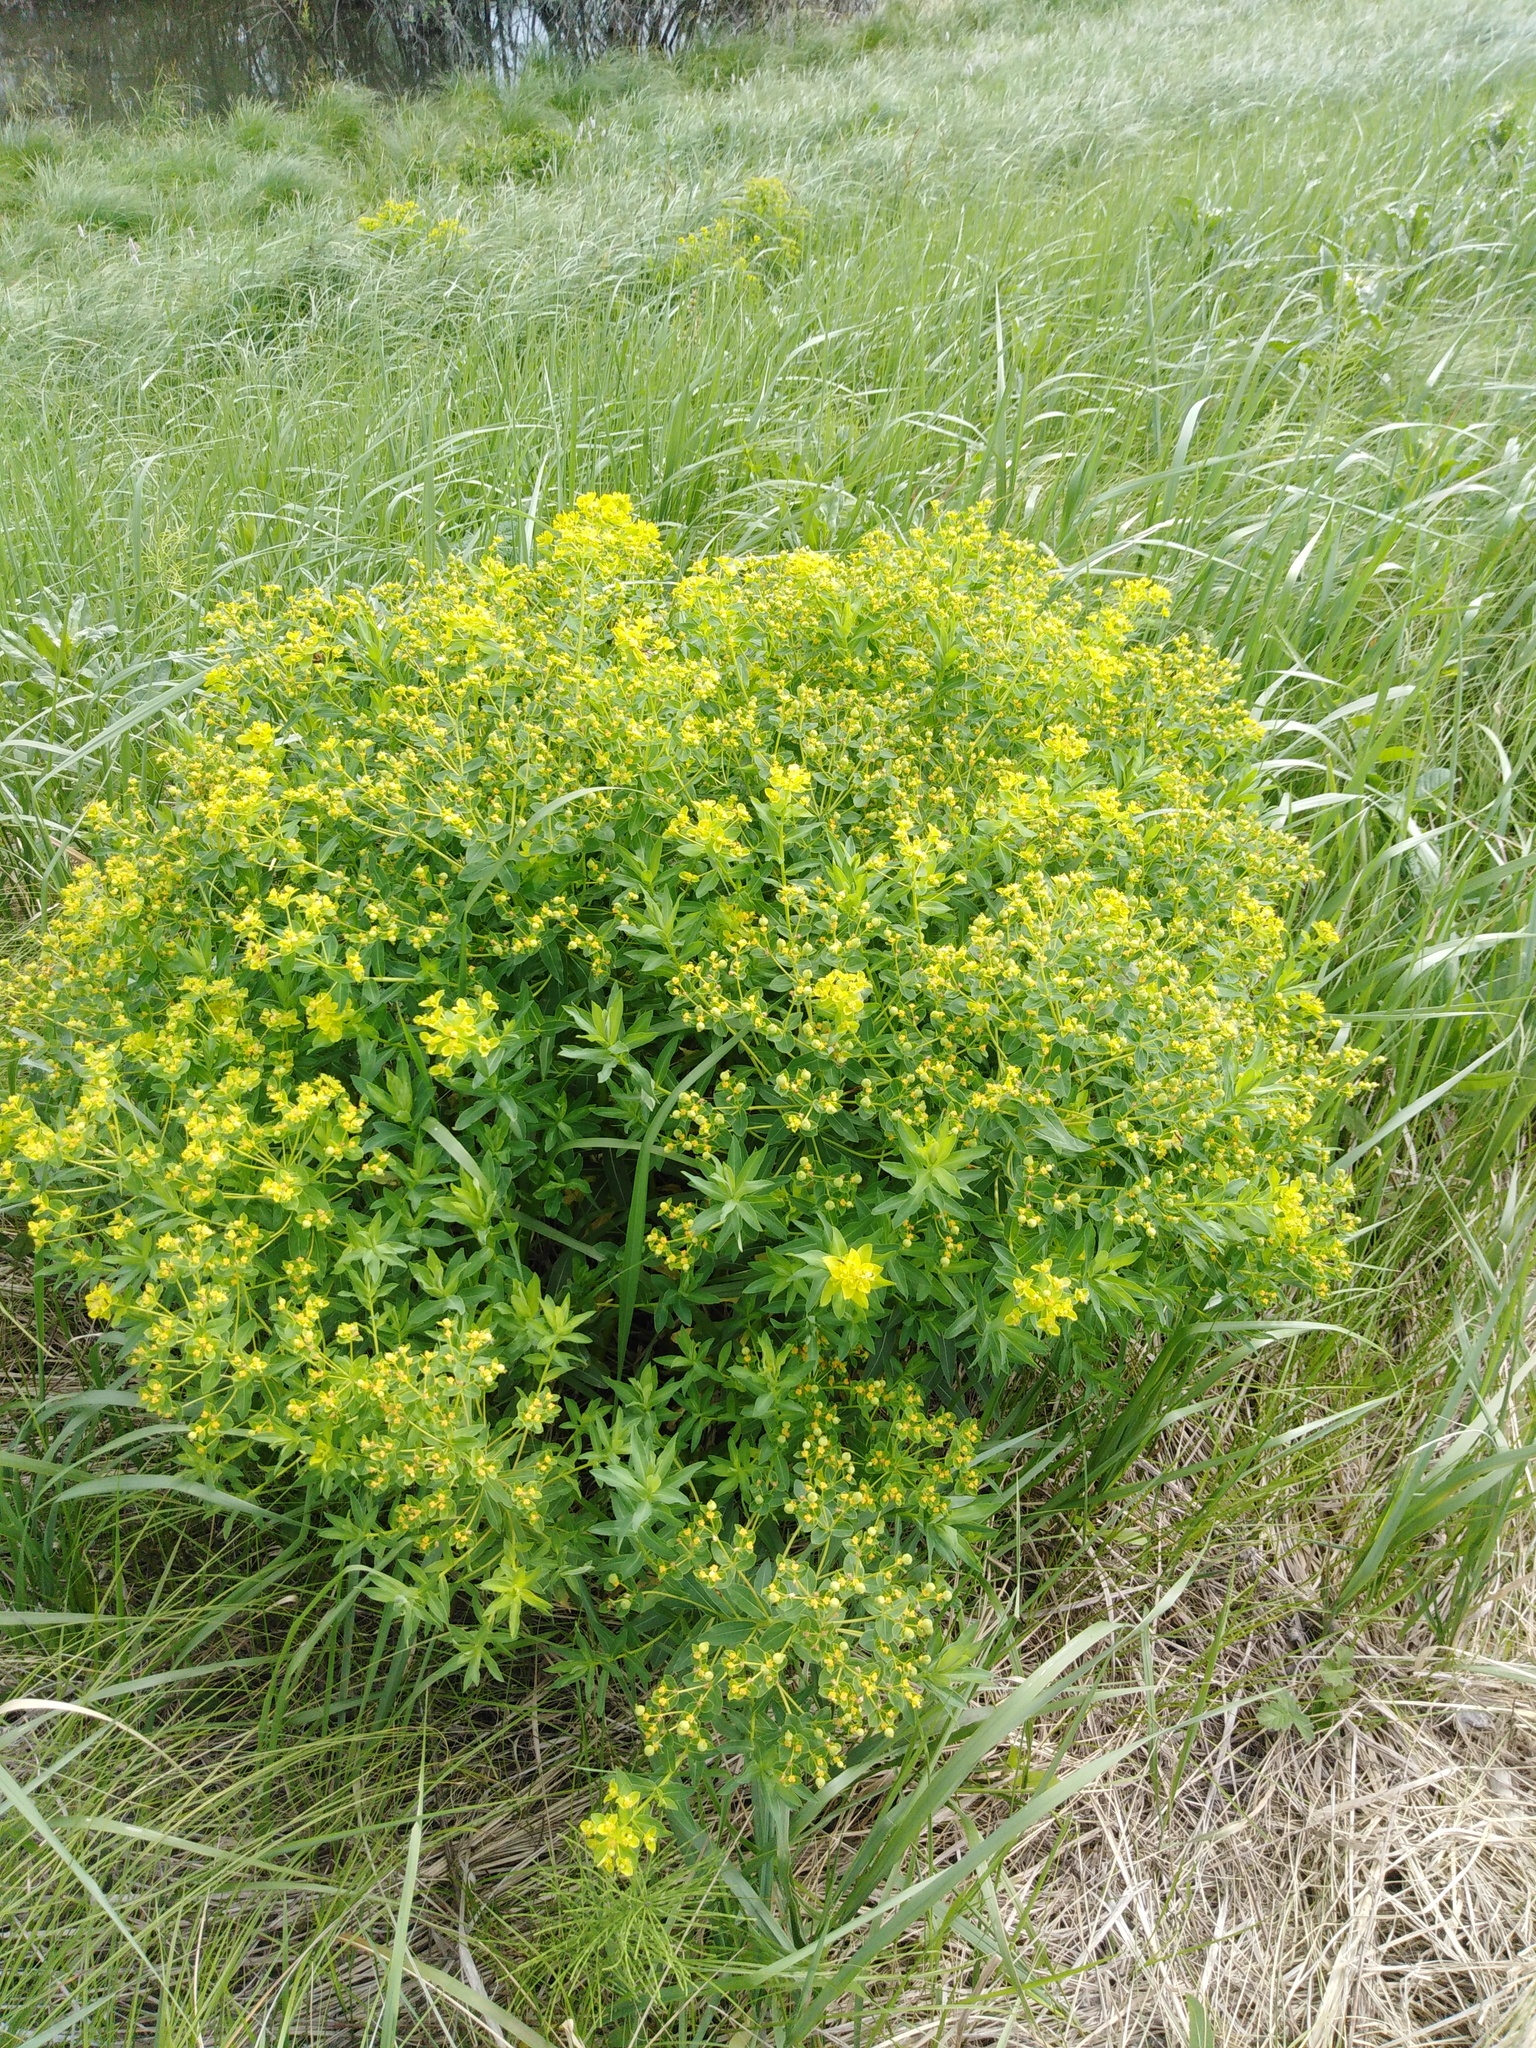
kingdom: Plantae
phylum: Tracheophyta
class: Magnoliopsida
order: Malpighiales
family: Euphorbiaceae
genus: Euphorbia
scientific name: Euphorbia semivillosa
